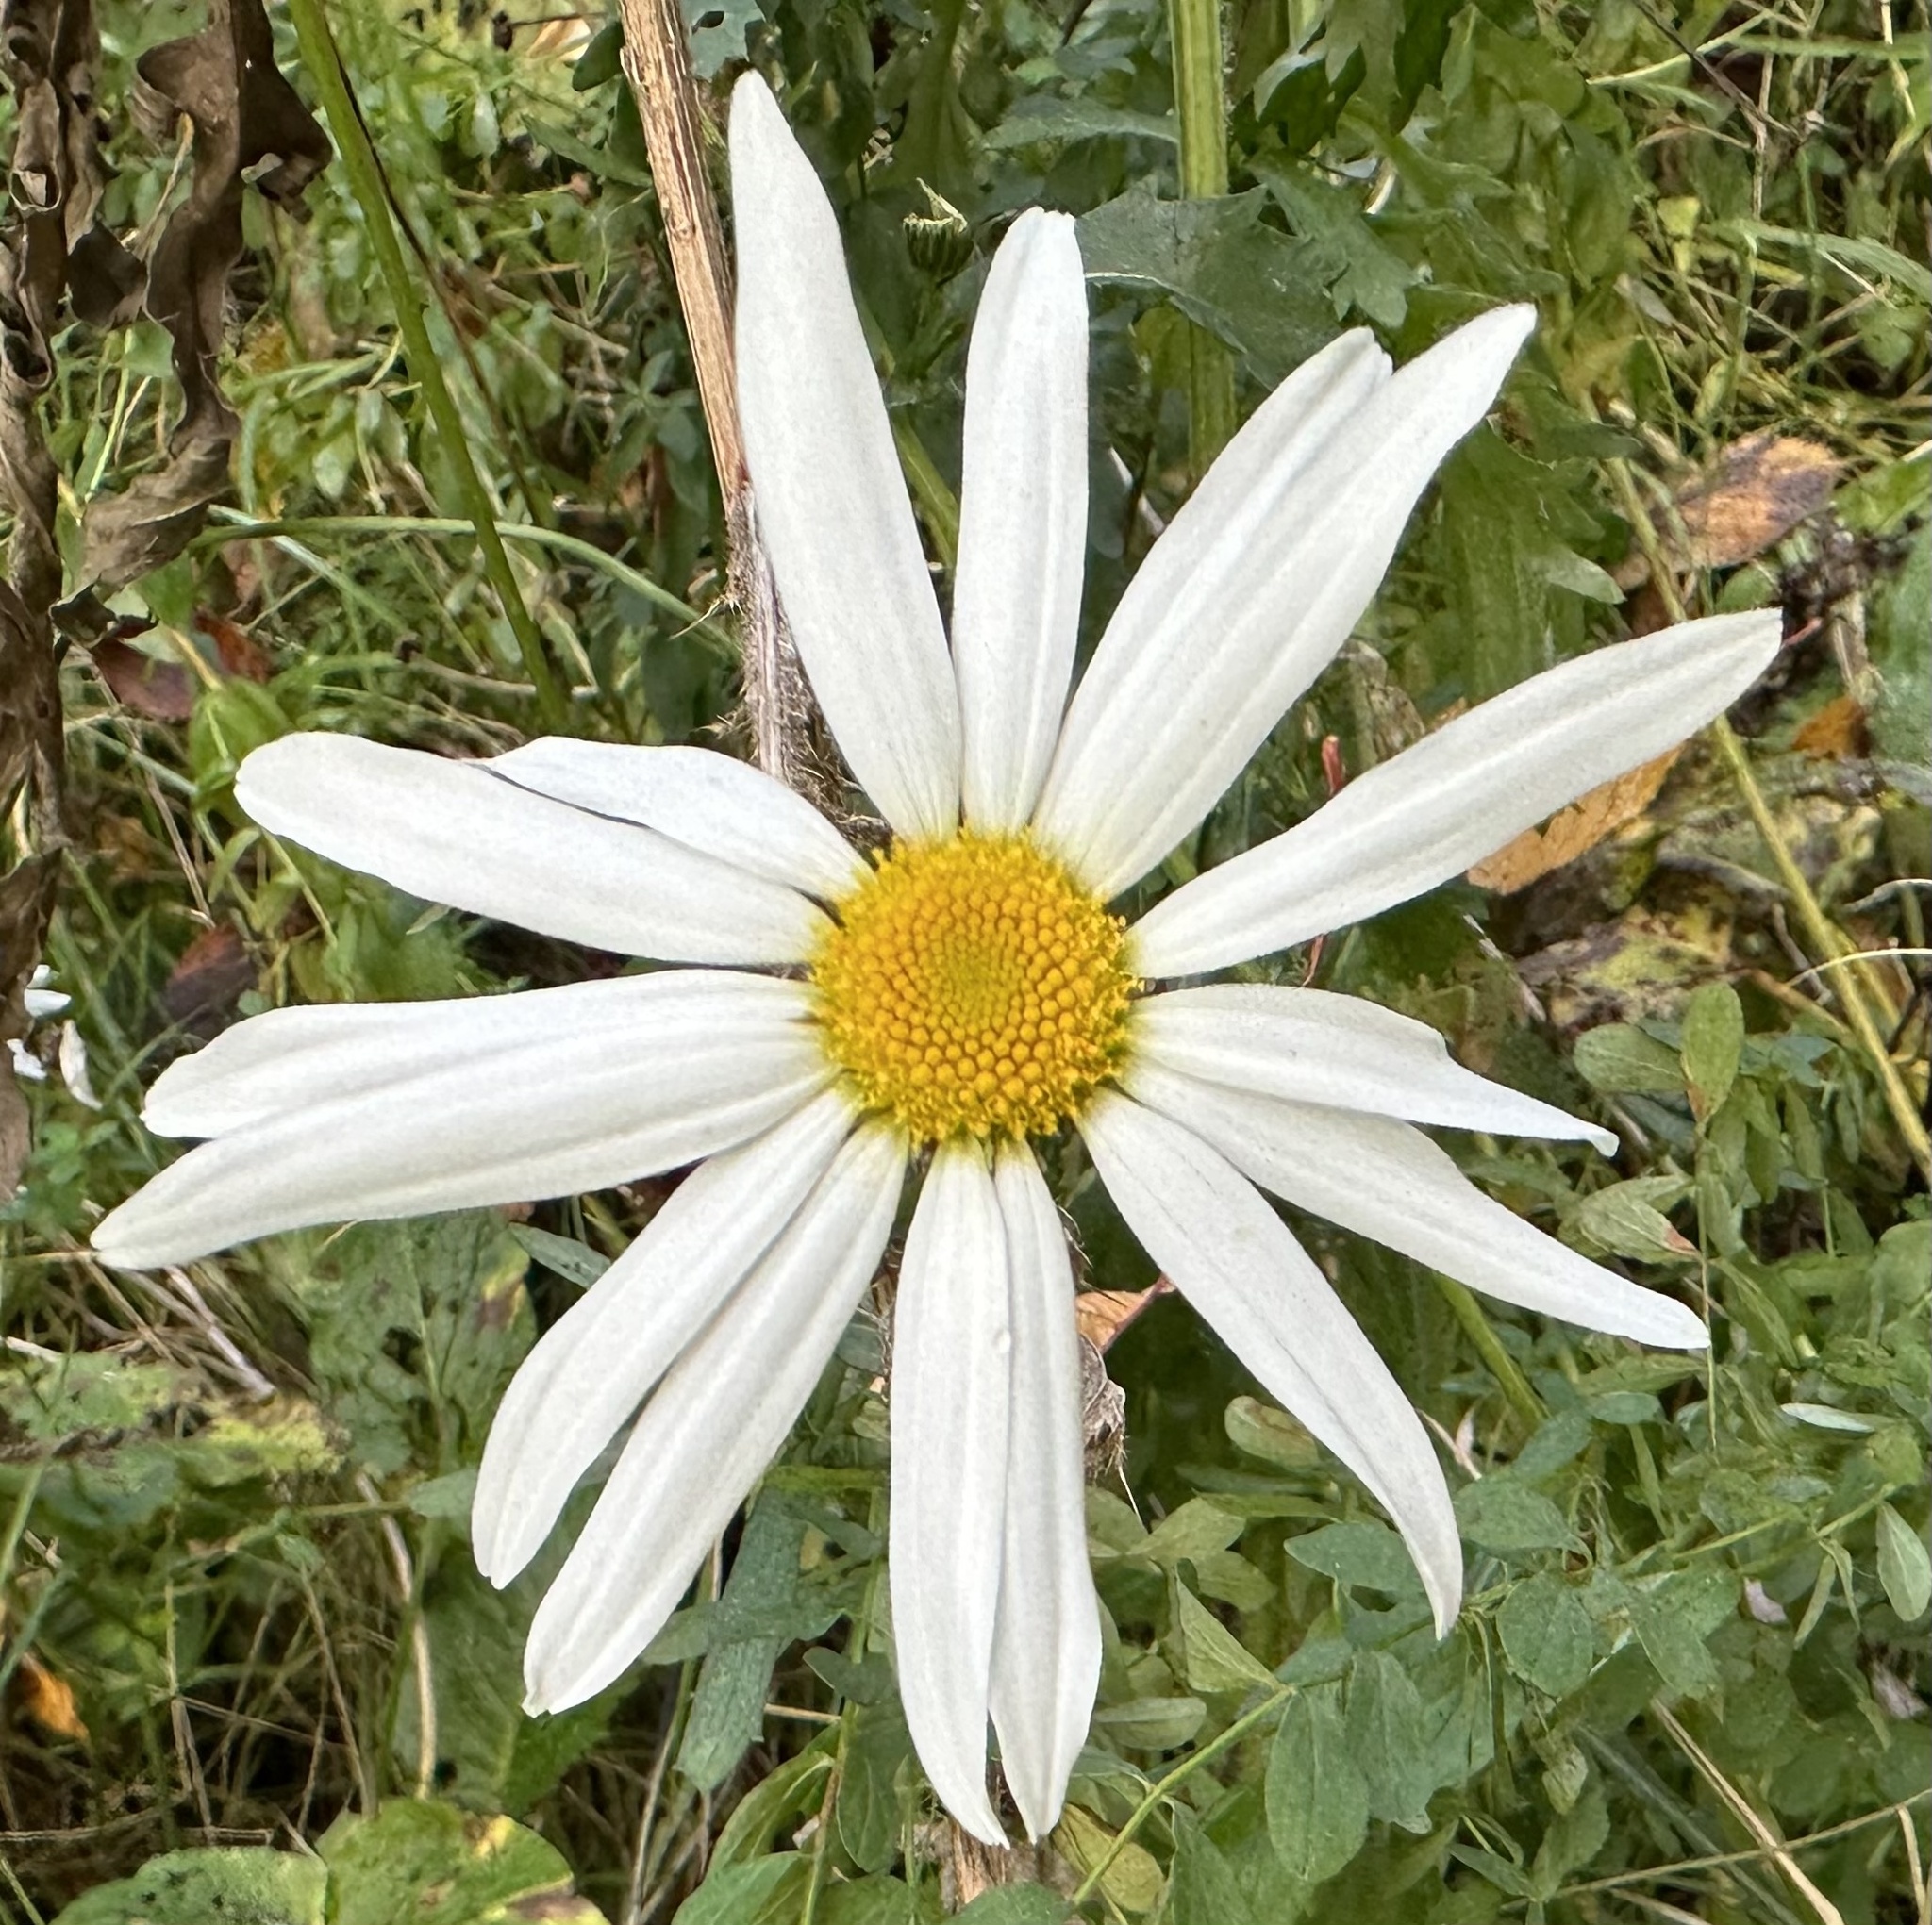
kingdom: Plantae
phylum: Tracheophyta
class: Magnoliopsida
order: Asterales
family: Asteraceae
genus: Leucanthemum
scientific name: Leucanthemum vulgare
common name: Oxeye daisy
